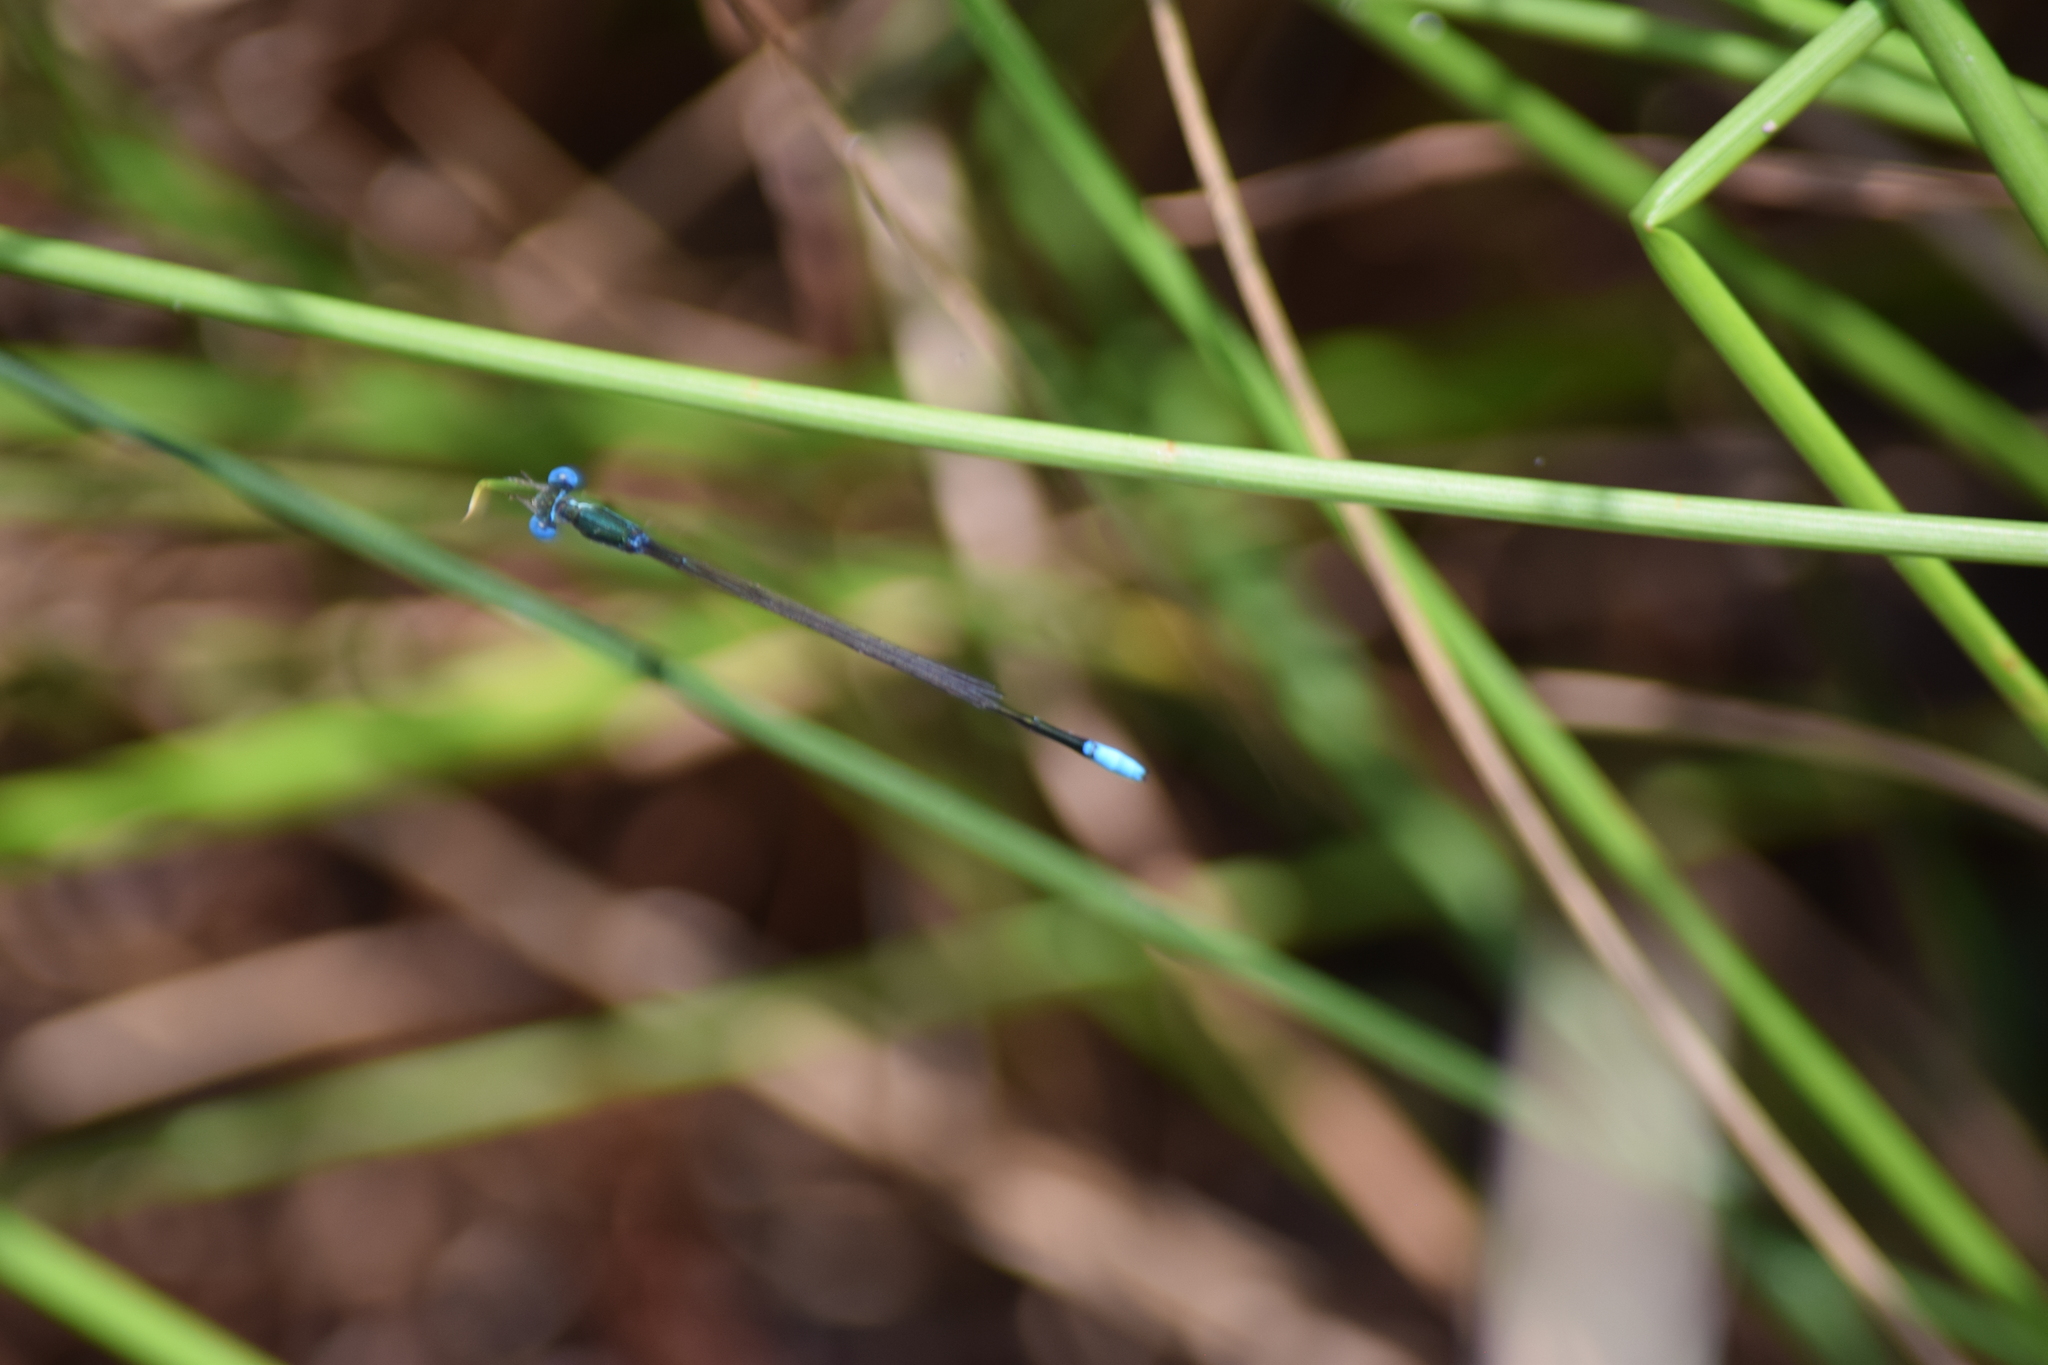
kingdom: Animalia
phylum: Arthropoda
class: Insecta
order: Odonata
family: Coenagrionidae
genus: Nehalennia
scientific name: Nehalennia gracilis
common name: Sphagnum sprite
